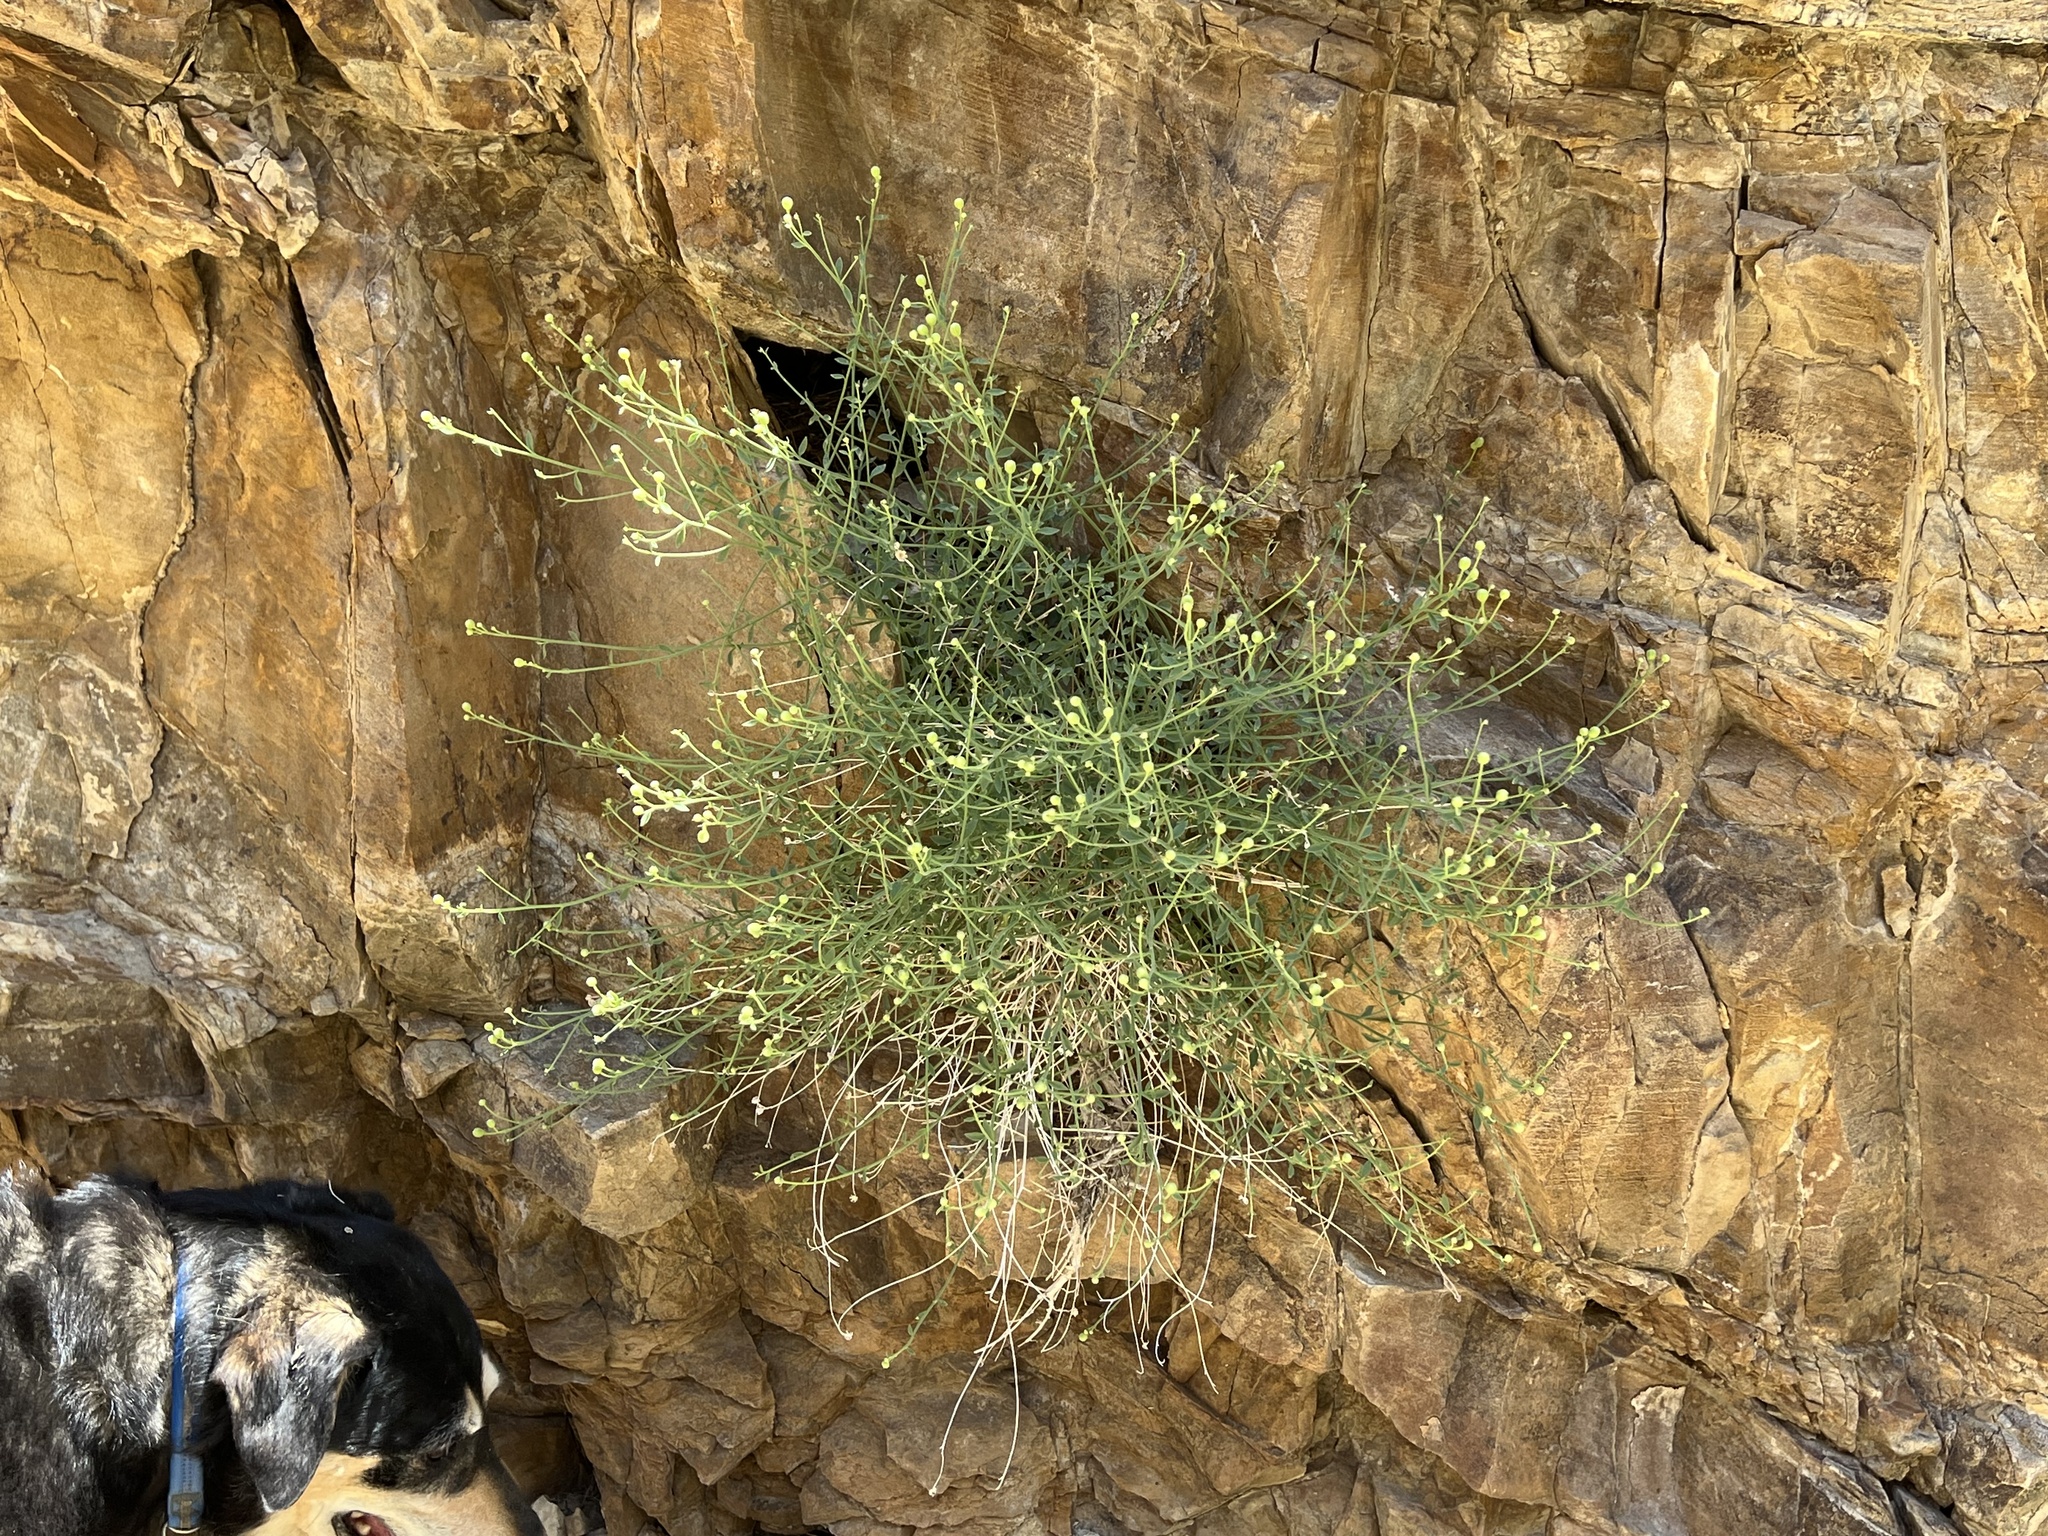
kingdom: Plantae
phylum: Tracheophyta
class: Magnoliopsida
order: Asterales
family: Asteraceae
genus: Laphamia
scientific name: Laphamia megalocephala
